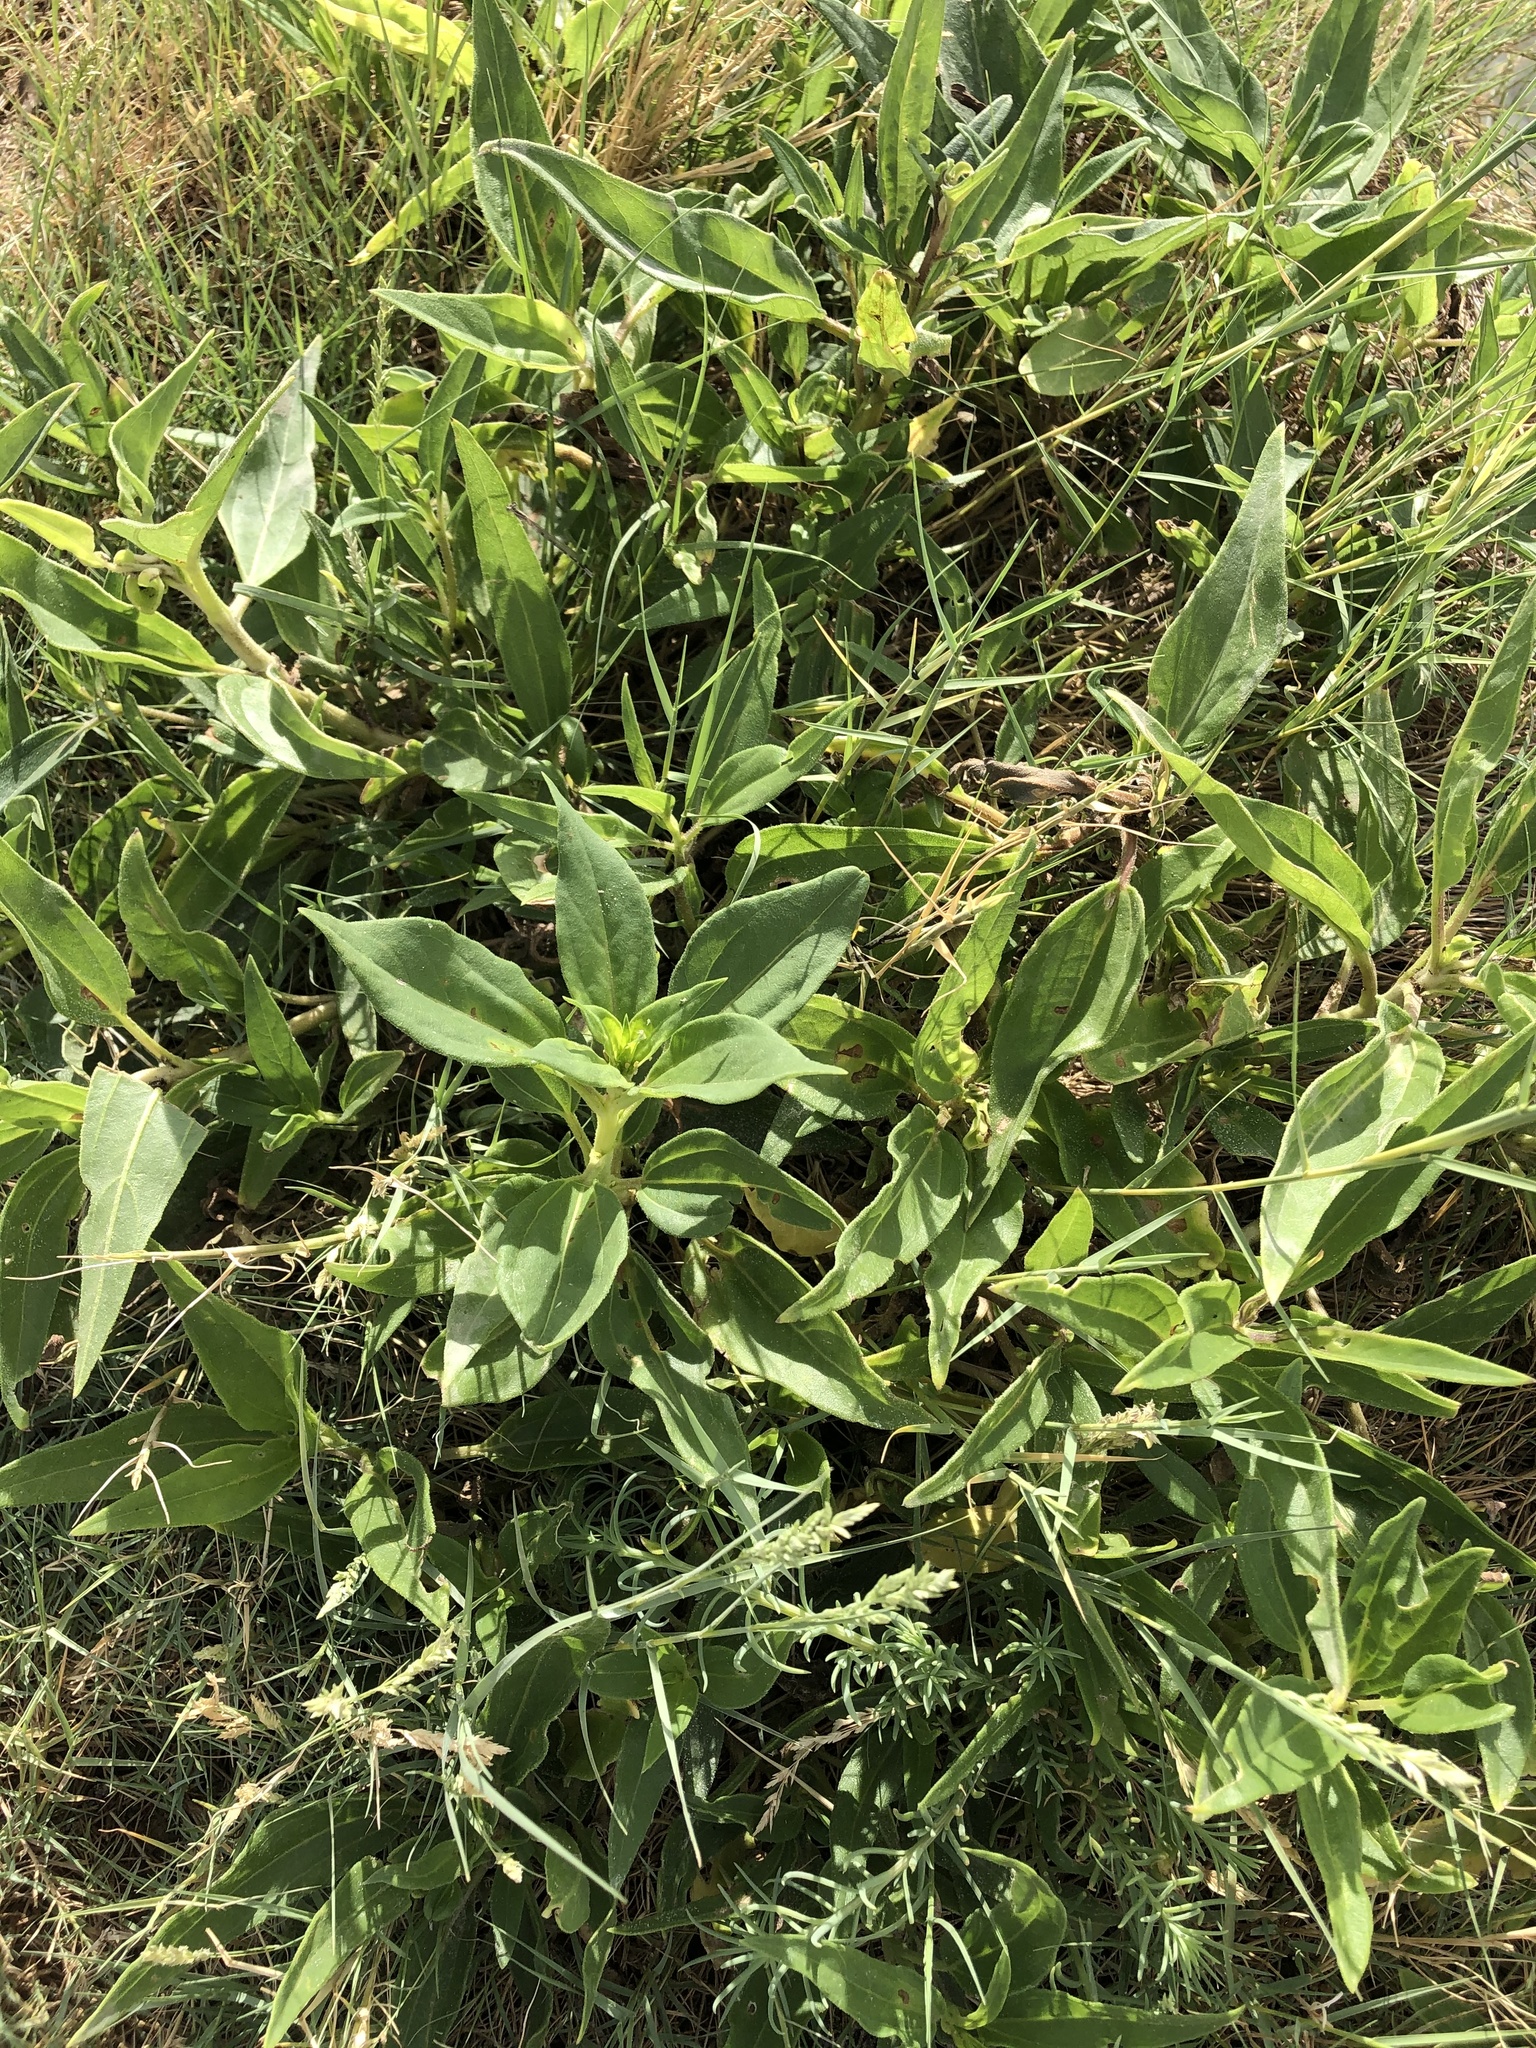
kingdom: Plantae
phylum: Tracheophyta
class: Magnoliopsida
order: Asterales
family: Asteraceae
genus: Helianthus
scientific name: Helianthus annuus
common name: Sunflower
